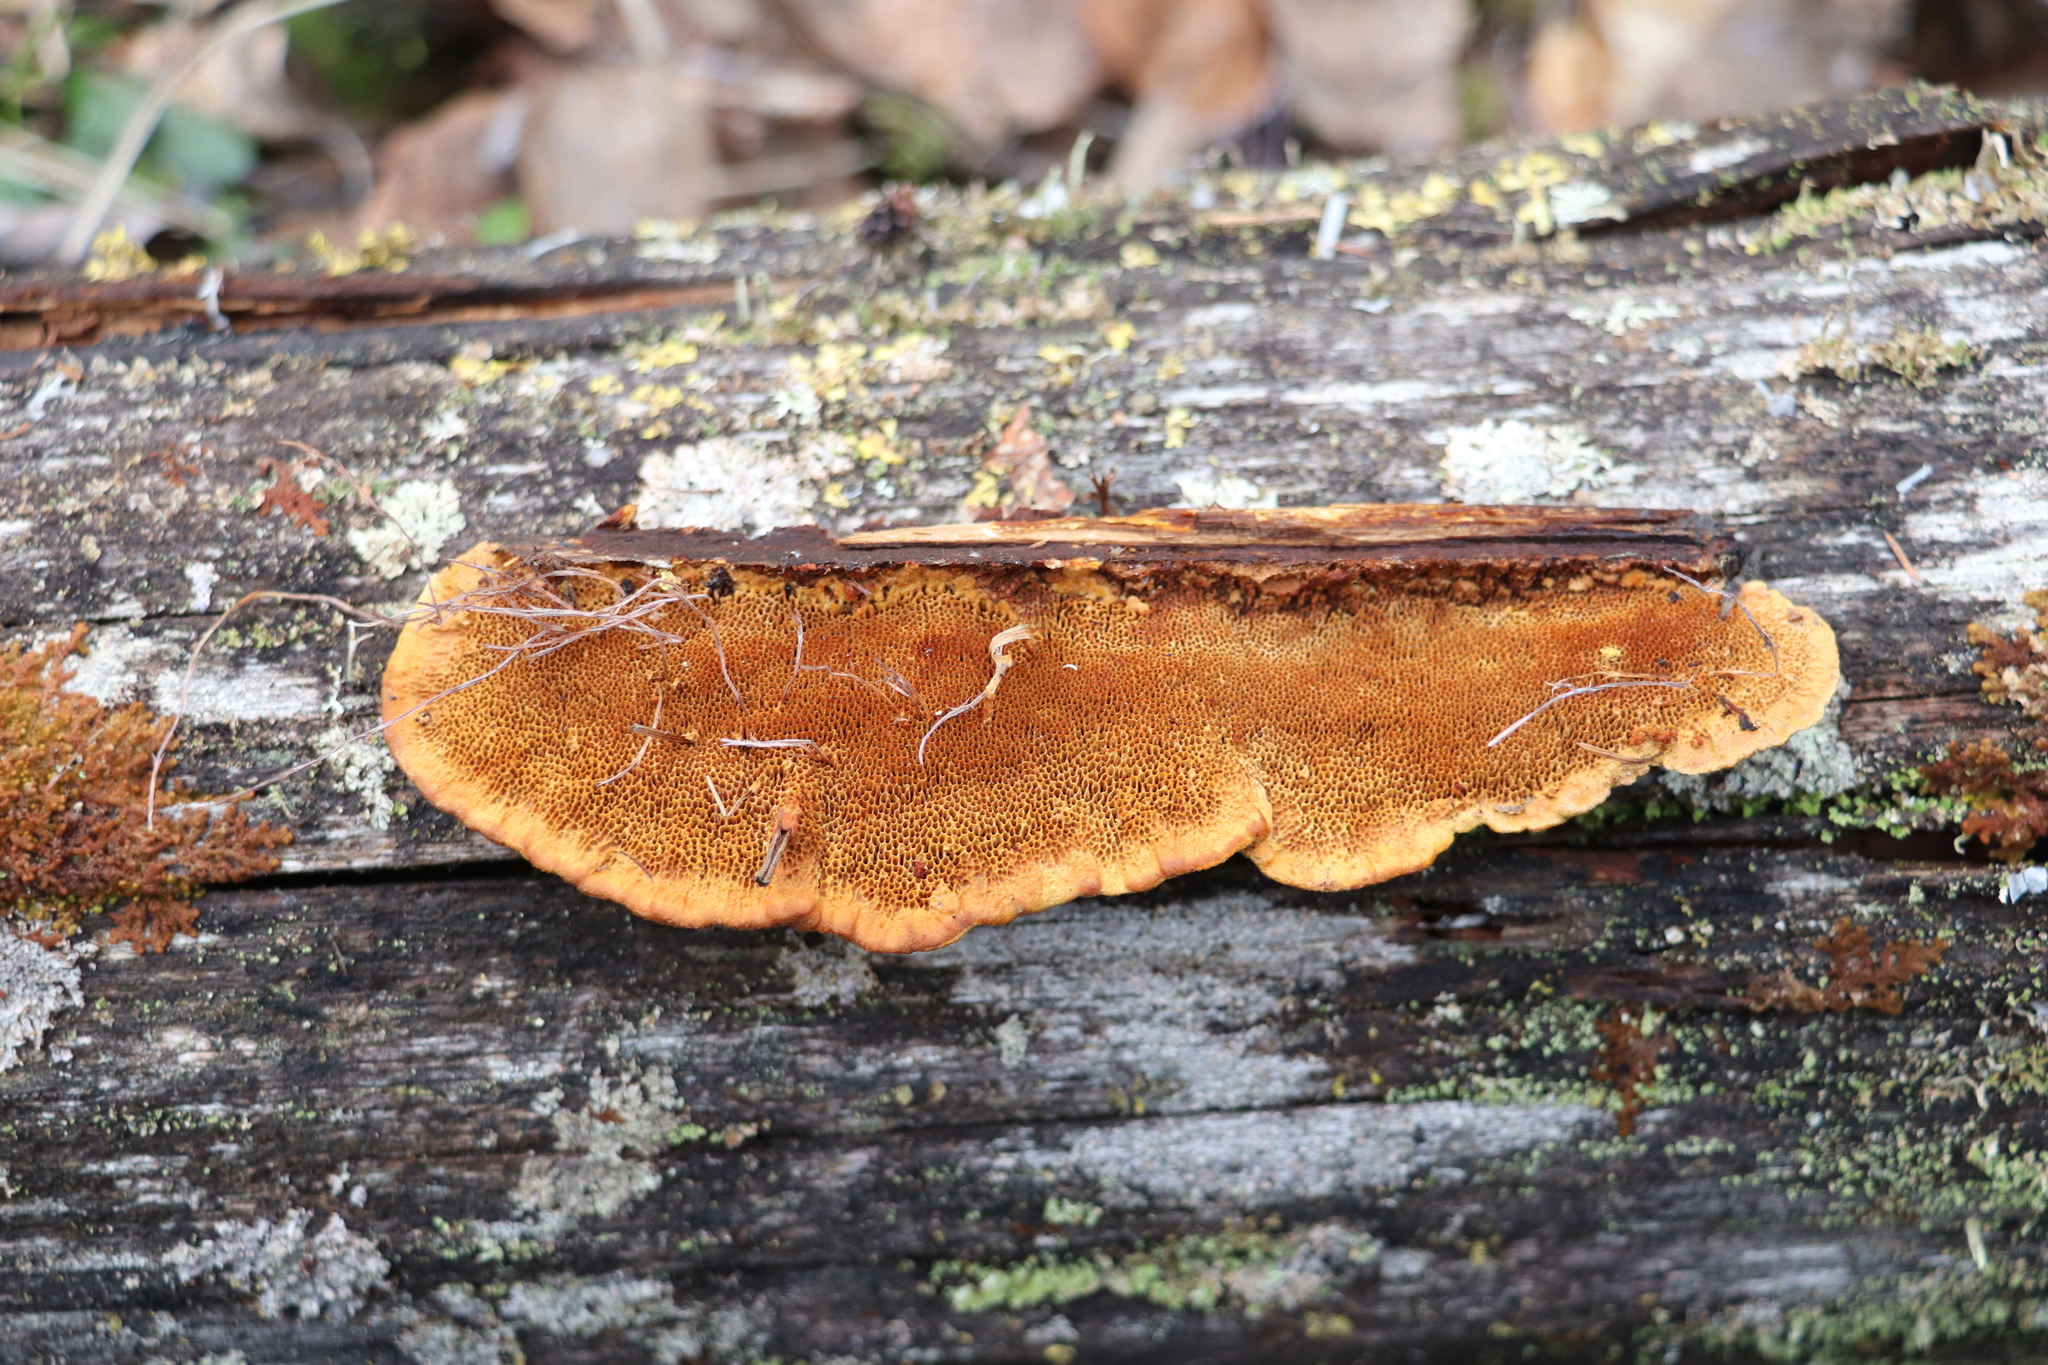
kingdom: Fungi
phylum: Basidiomycota
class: Agaricomycetes
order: Gloeophyllales
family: Gloeophyllaceae
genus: Gloeophyllum
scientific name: Gloeophyllum protractum
